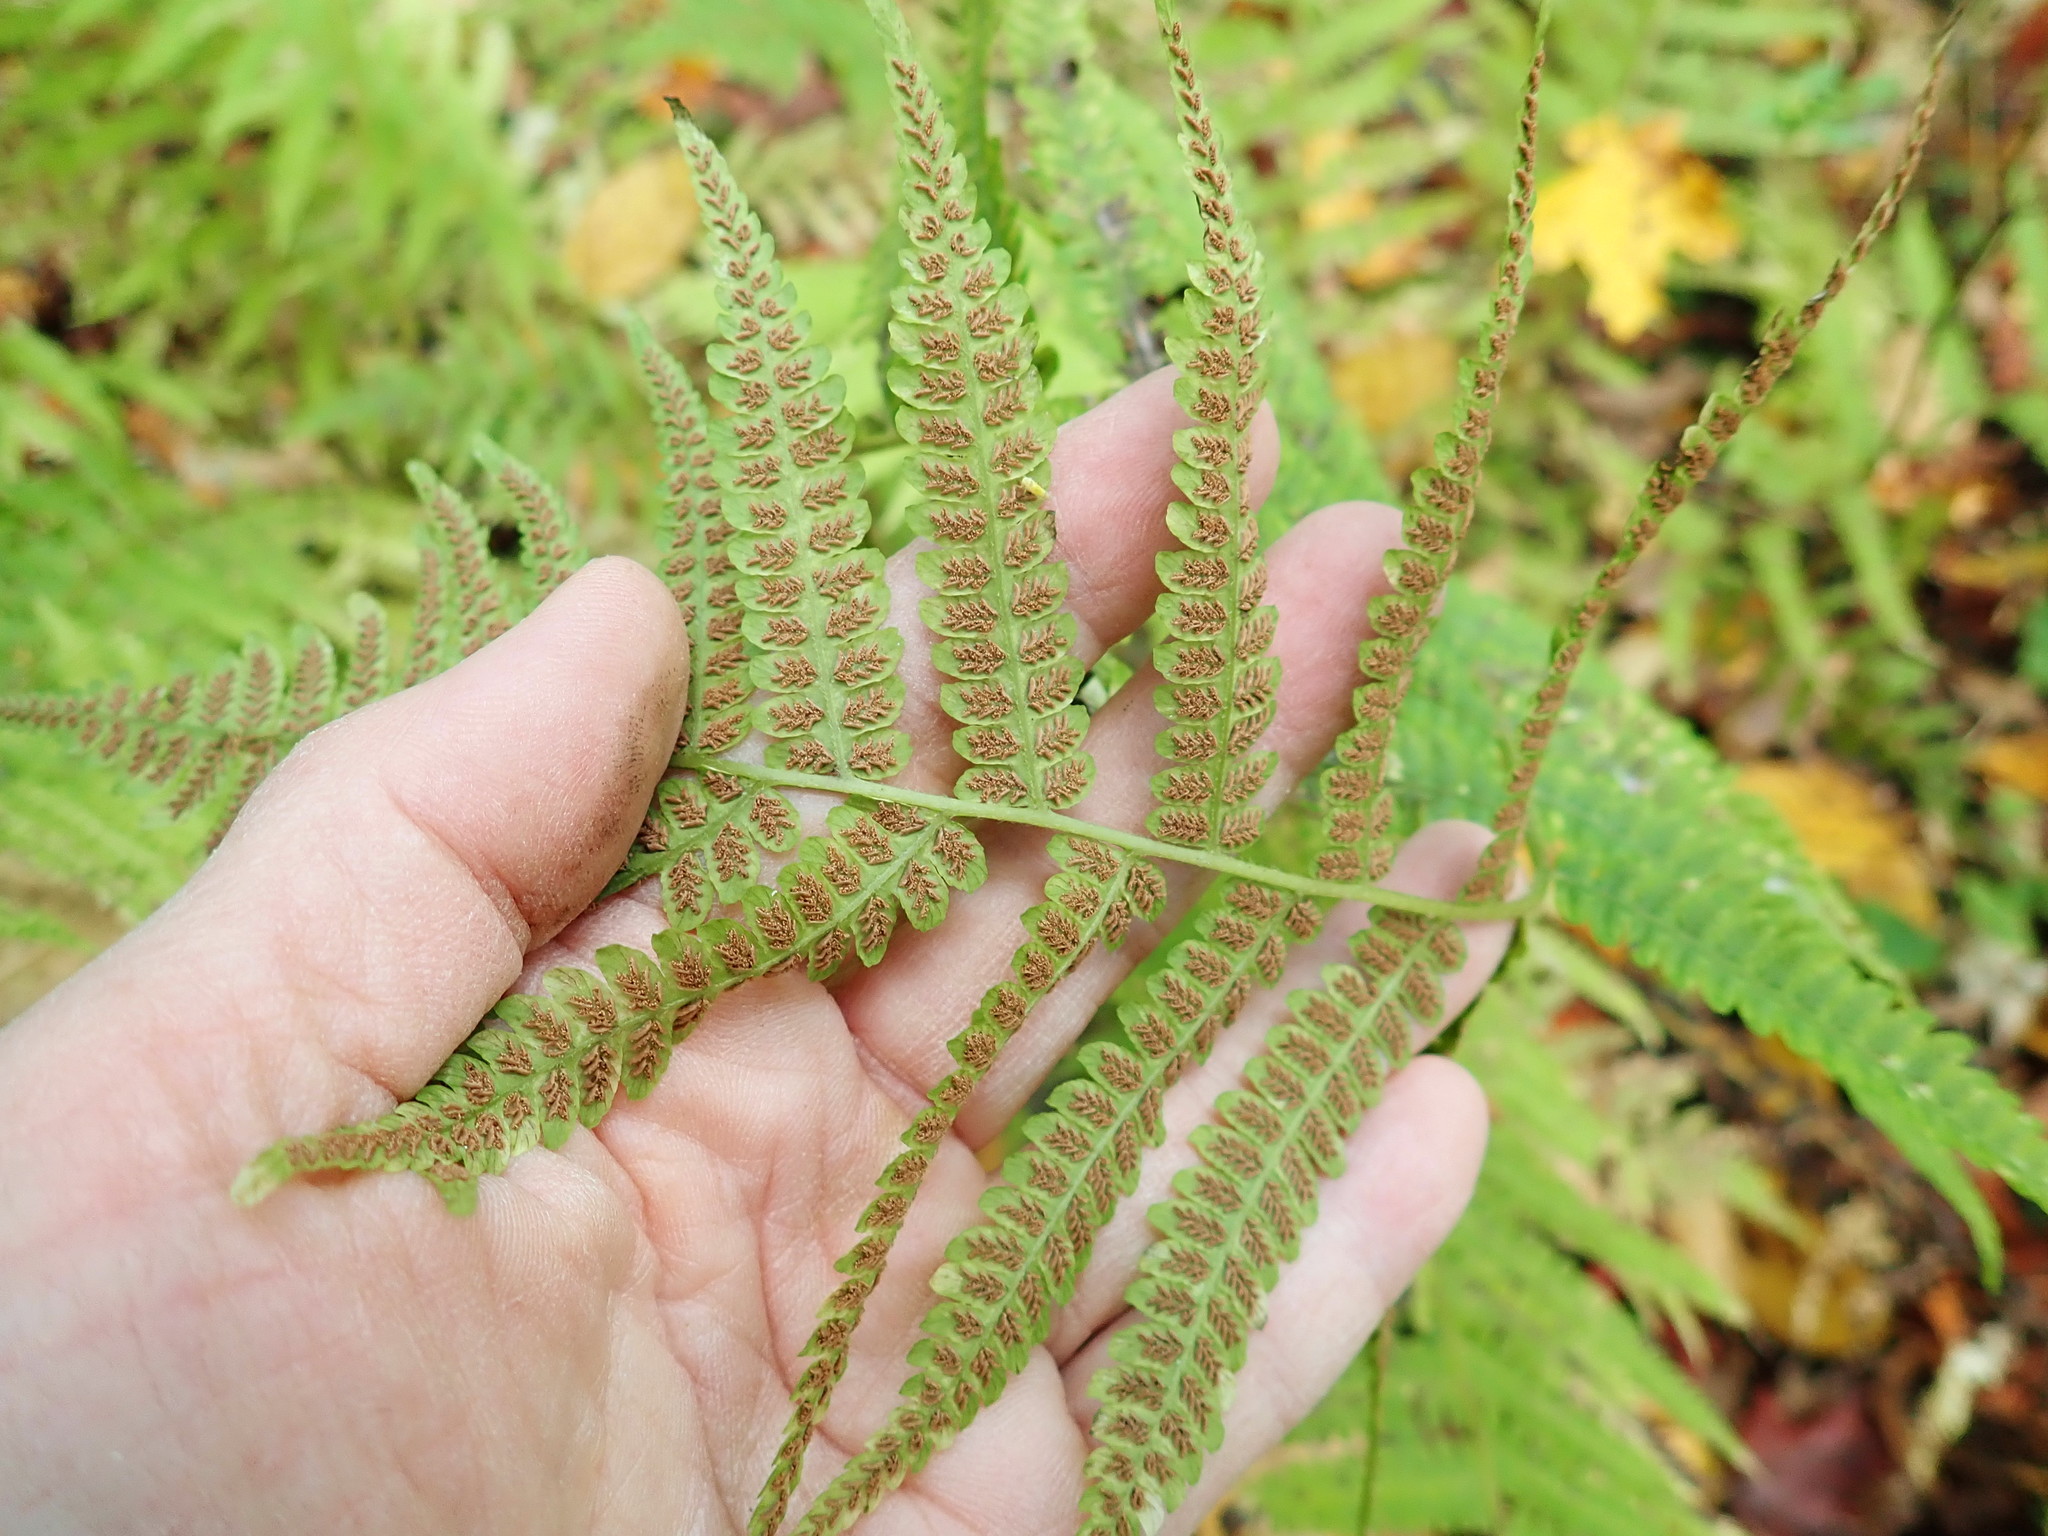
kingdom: Plantae
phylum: Tracheophyta
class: Polypodiopsida
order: Polypodiales
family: Athyriaceae
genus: Deparia
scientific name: Deparia acrostichoides
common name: Silver false spleenwort
